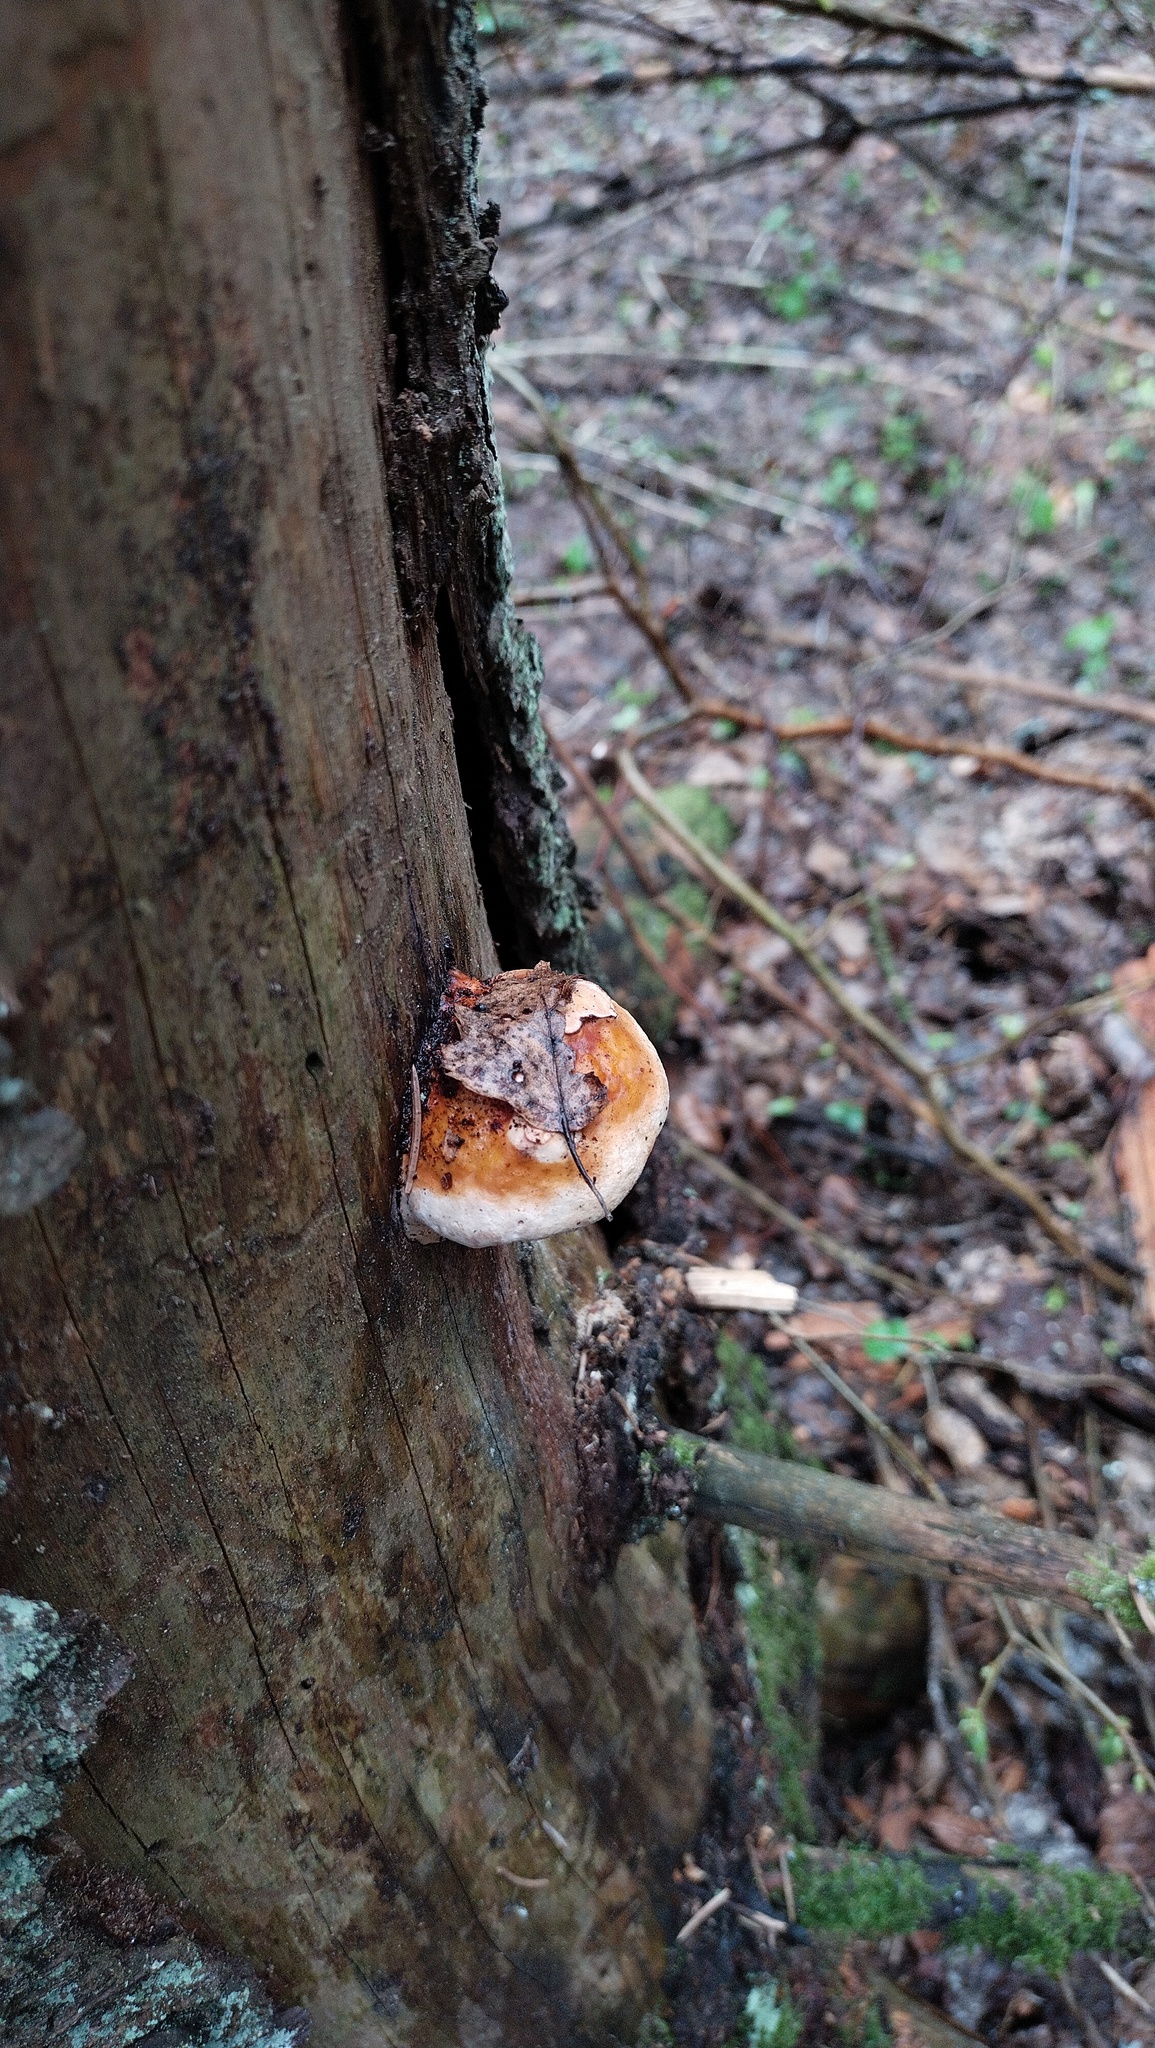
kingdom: Fungi
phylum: Basidiomycota
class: Agaricomycetes
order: Polyporales
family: Fomitopsidaceae
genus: Fomitopsis
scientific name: Fomitopsis pinicola
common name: Red-belted bracket
